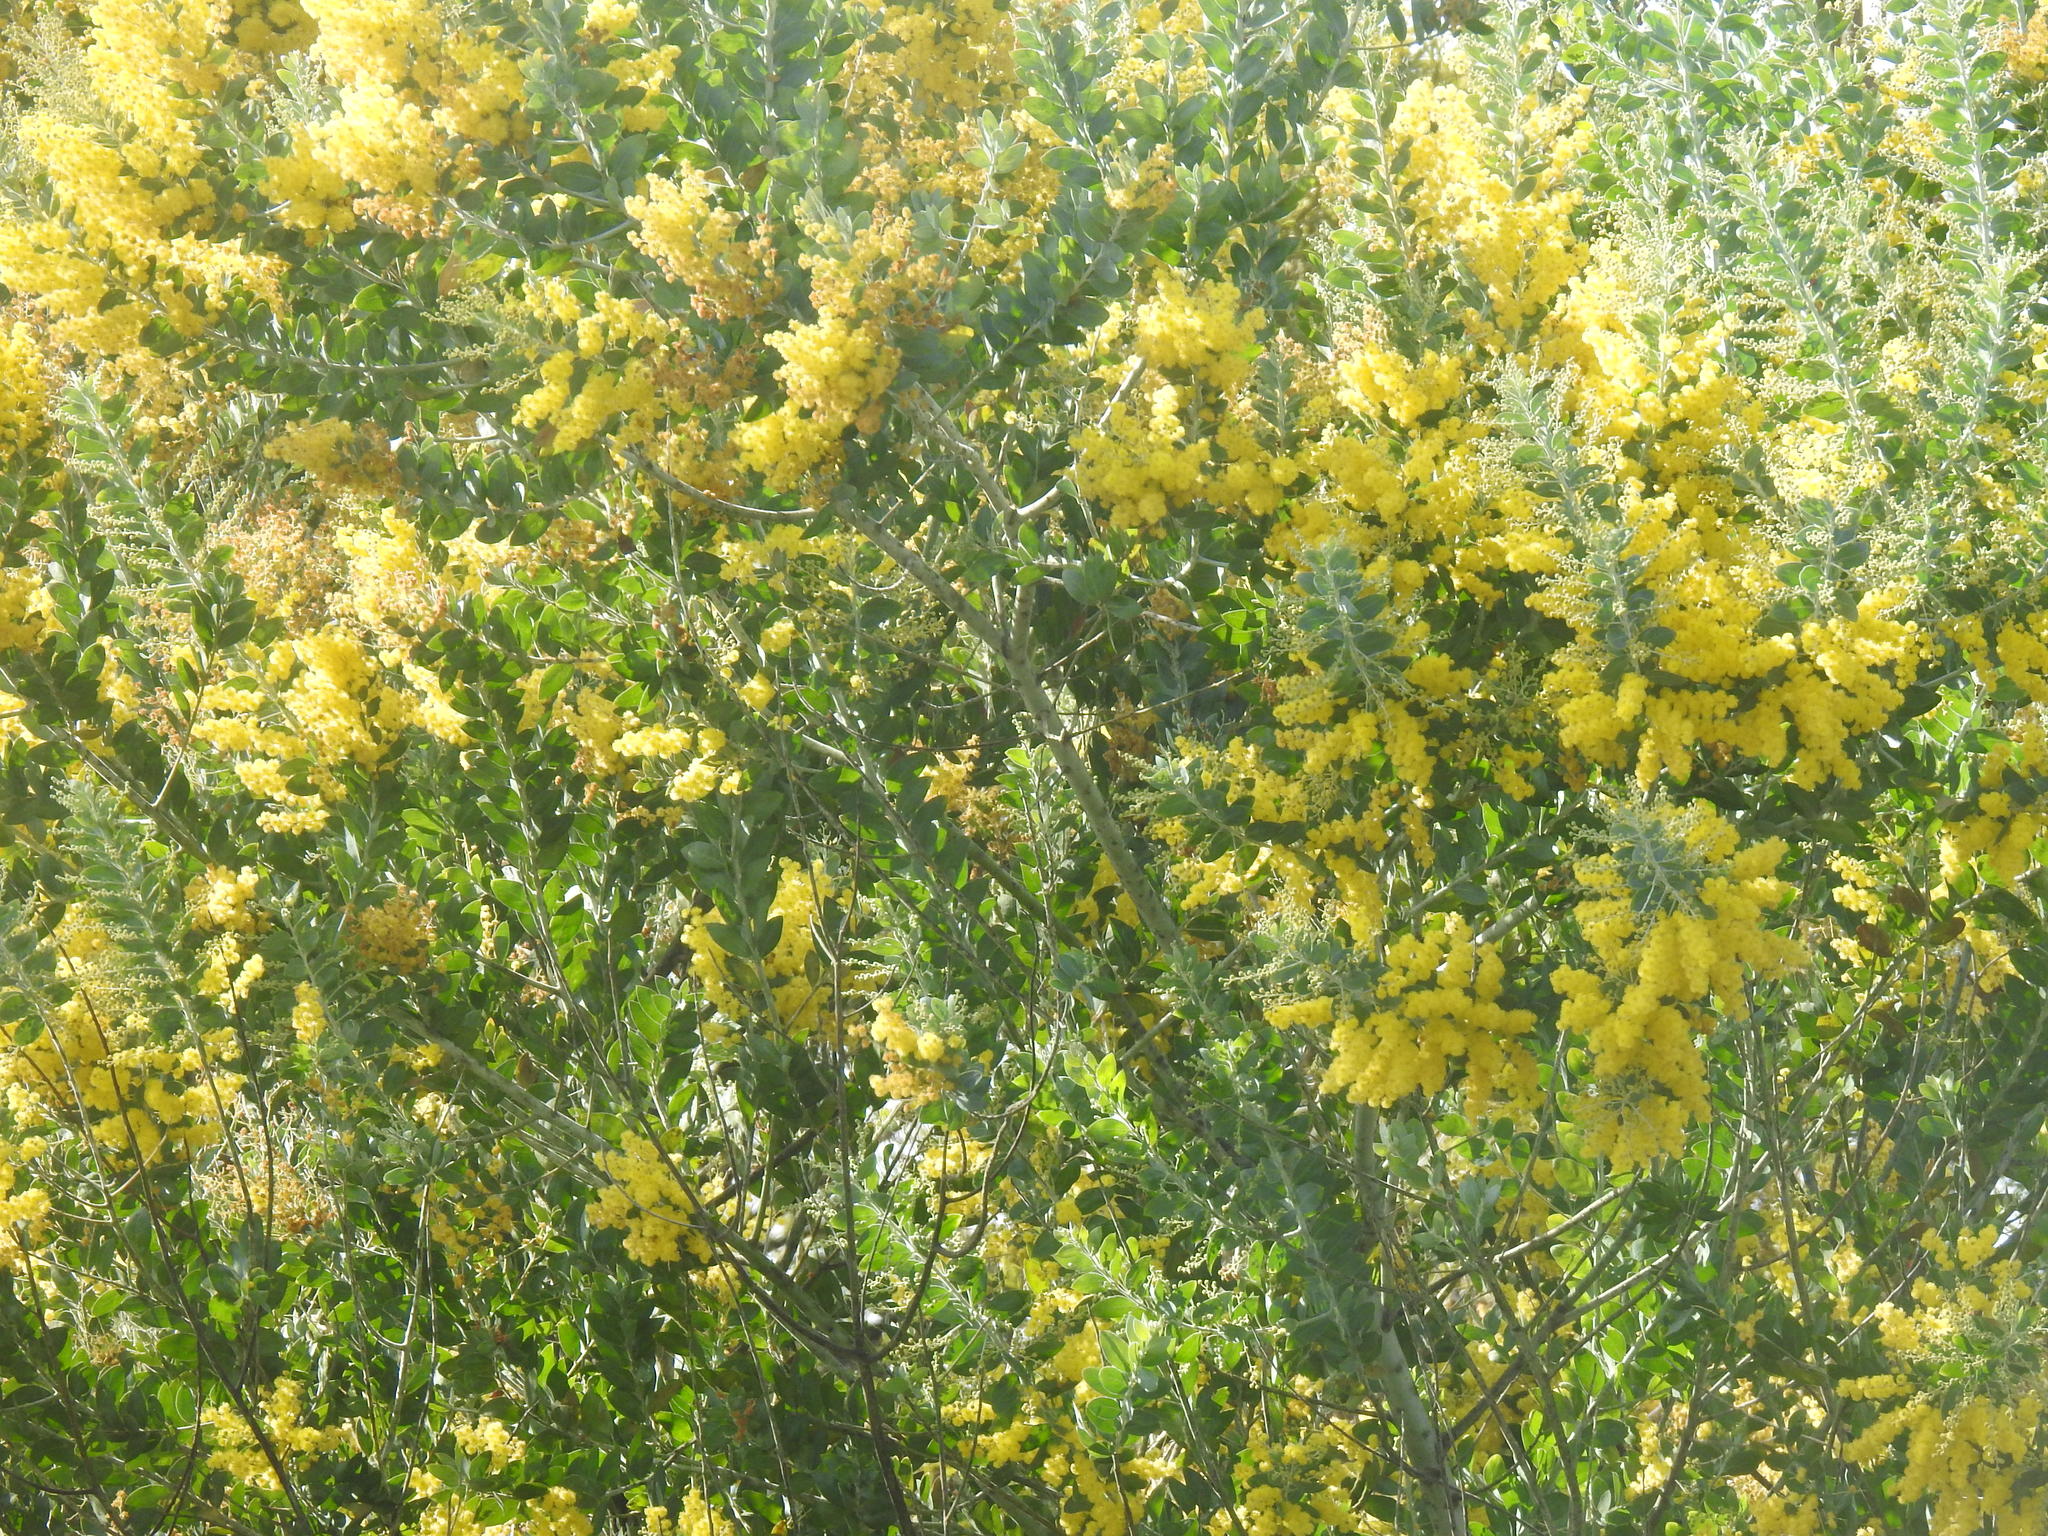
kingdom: Plantae
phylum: Tracheophyta
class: Magnoliopsida
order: Fabales
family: Fabaceae
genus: Acacia
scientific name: Acacia podalyriifolia
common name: Pearl wattle
